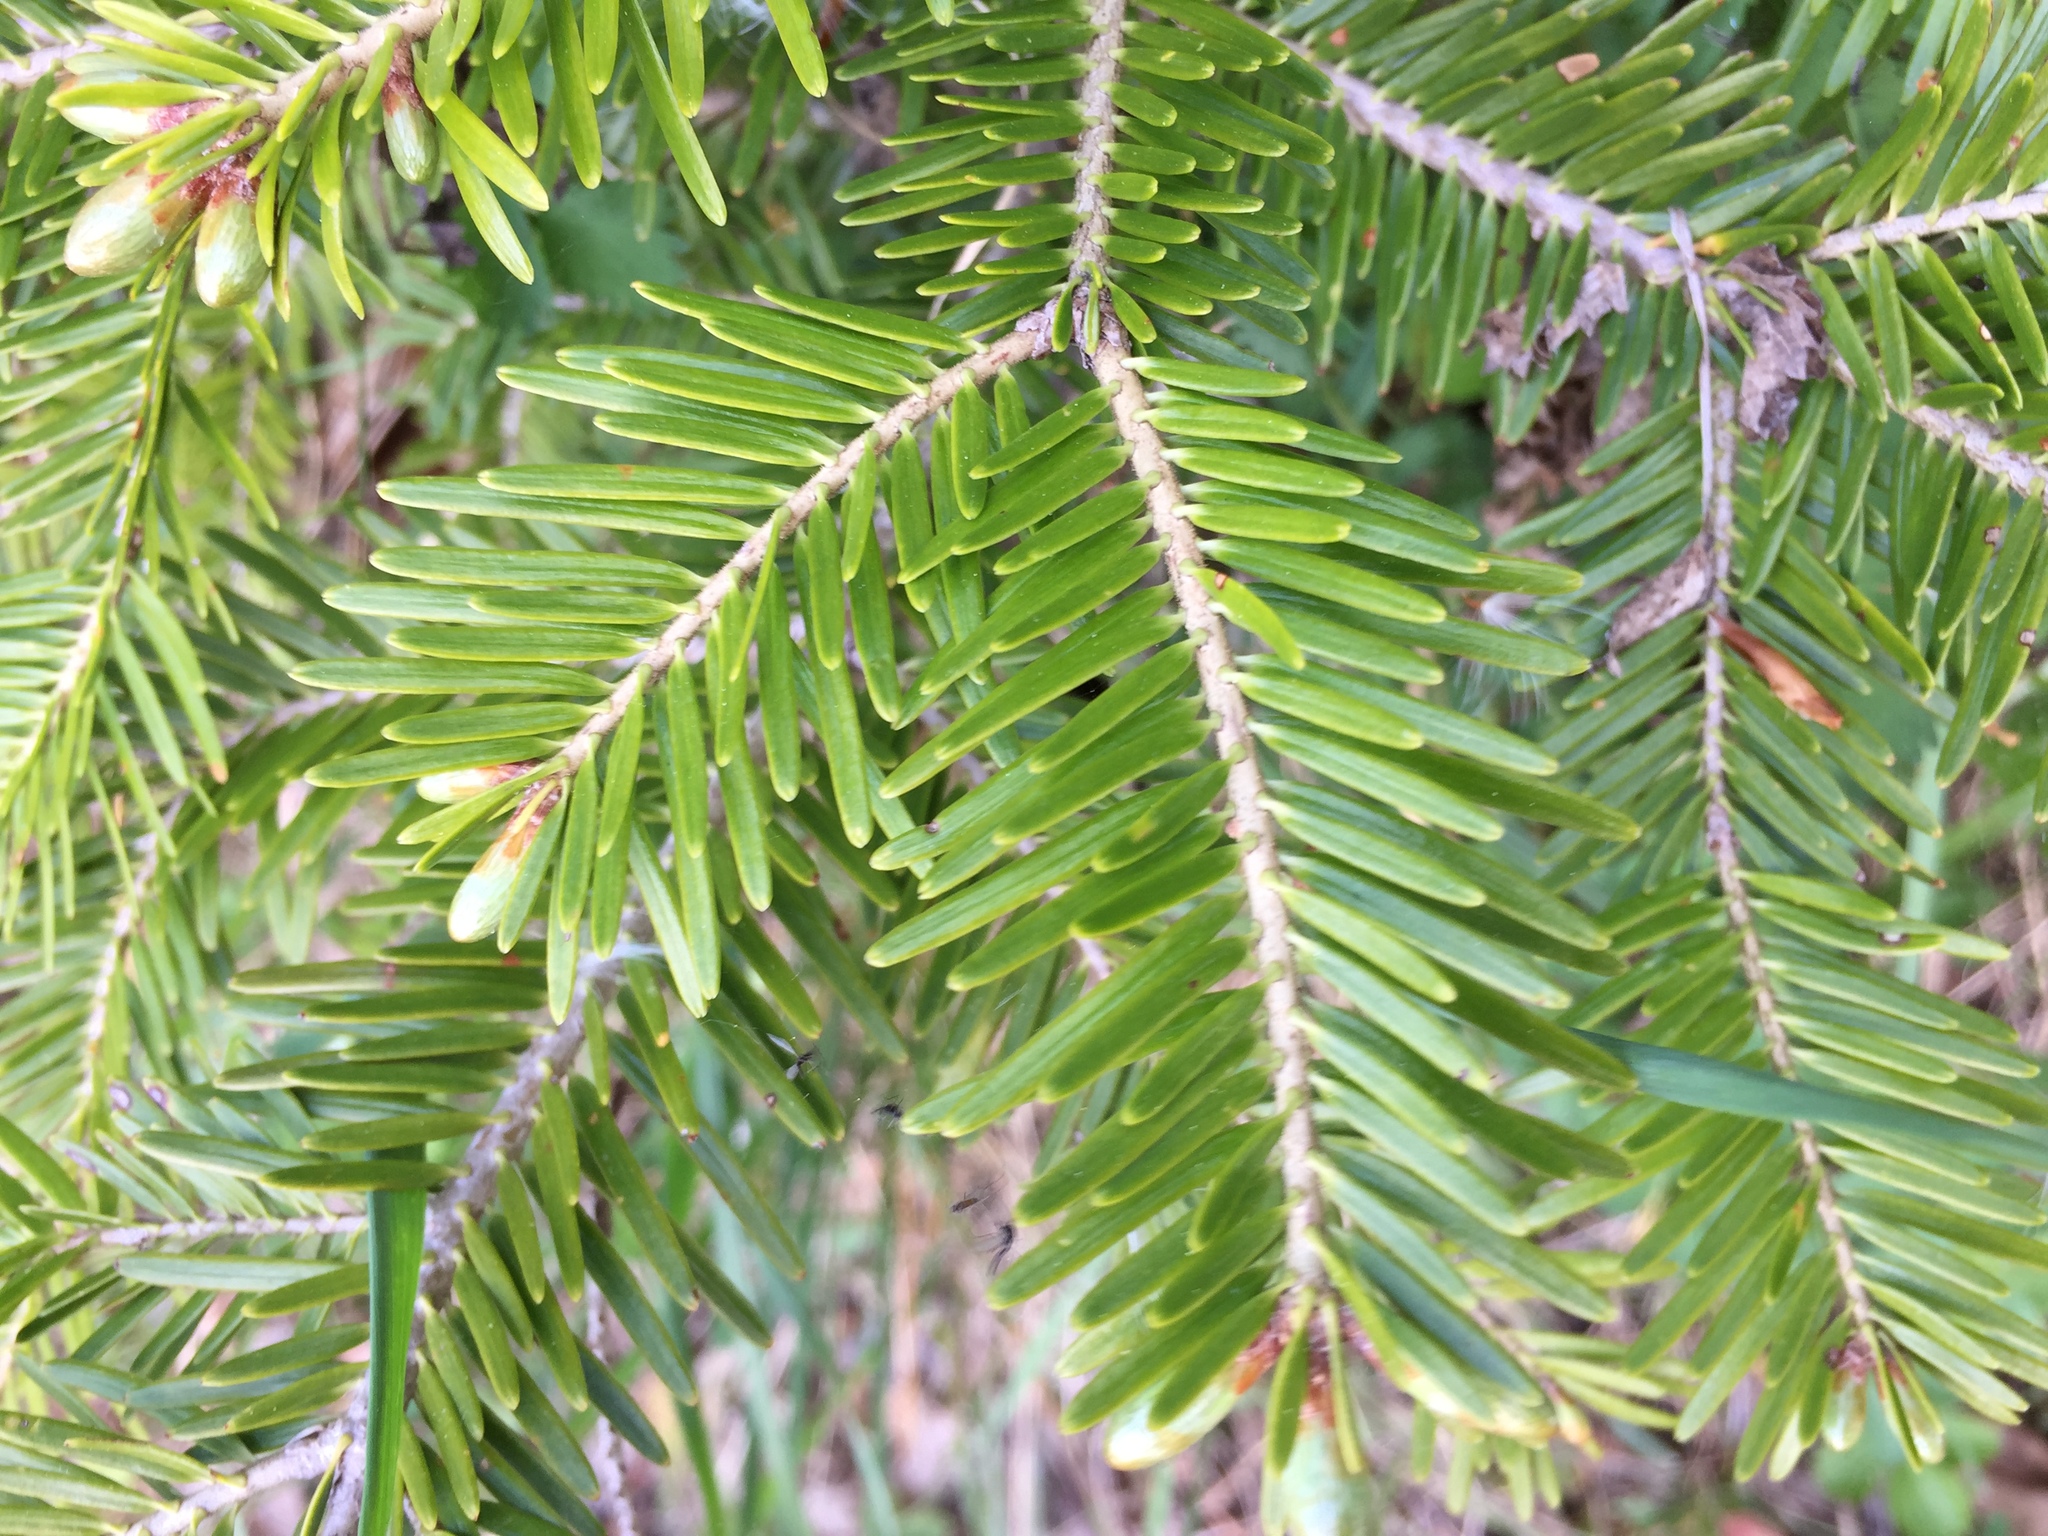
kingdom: Plantae
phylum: Tracheophyta
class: Pinopsida
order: Pinales
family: Pinaceae
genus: Abies
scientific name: Abies alba
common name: Silver fir
